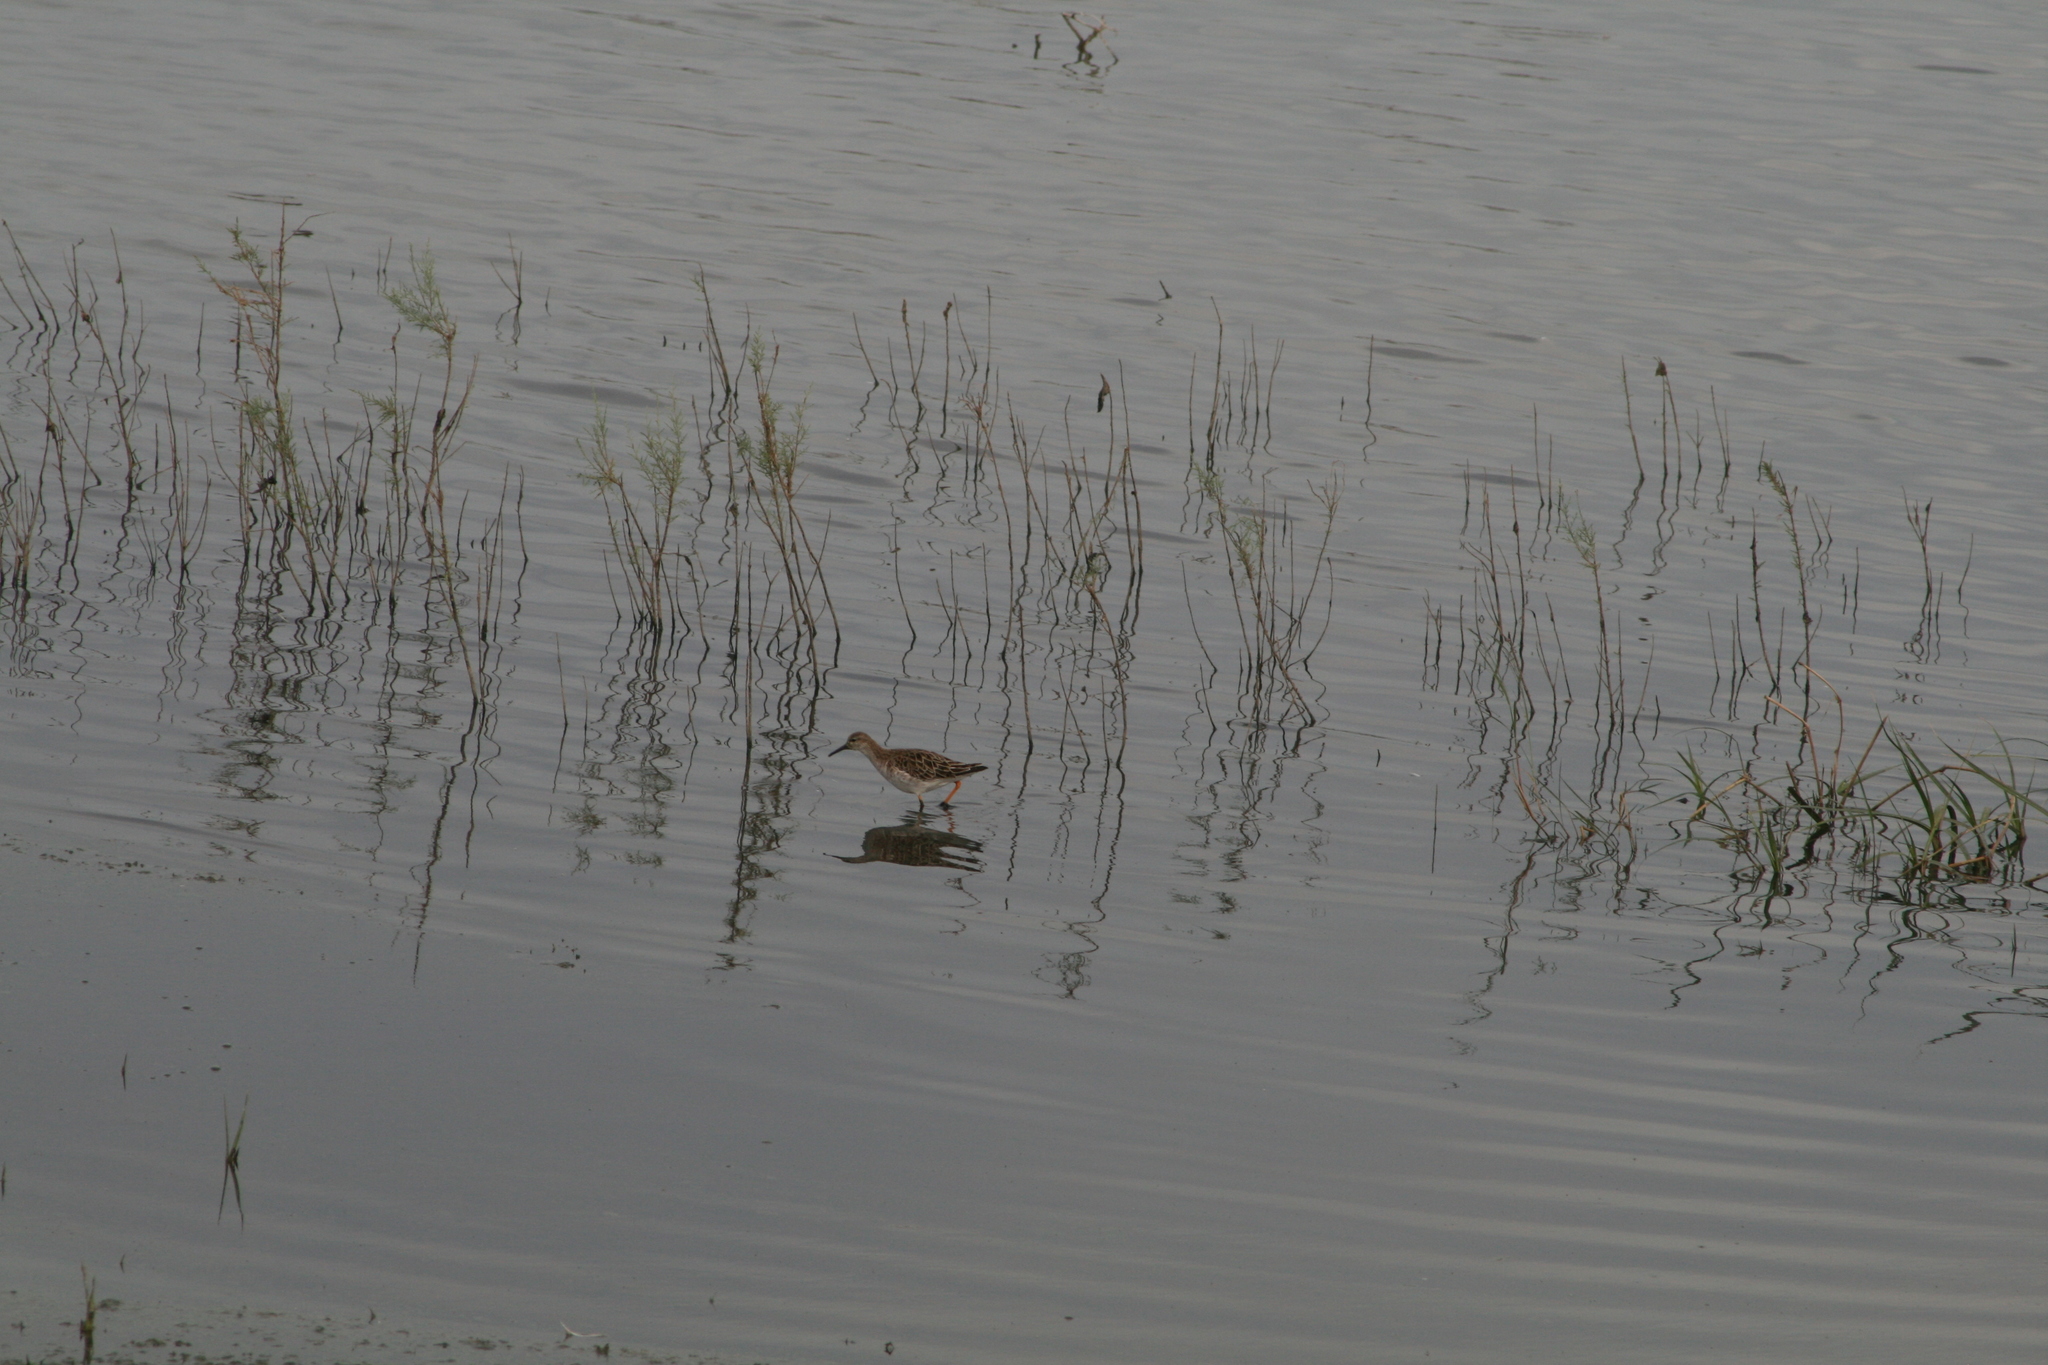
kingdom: Animalia
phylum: Chordata
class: Aves
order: Charadriiformes
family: Scolopacidae
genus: Calidris
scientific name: Calidris pugnax
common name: Ruff
